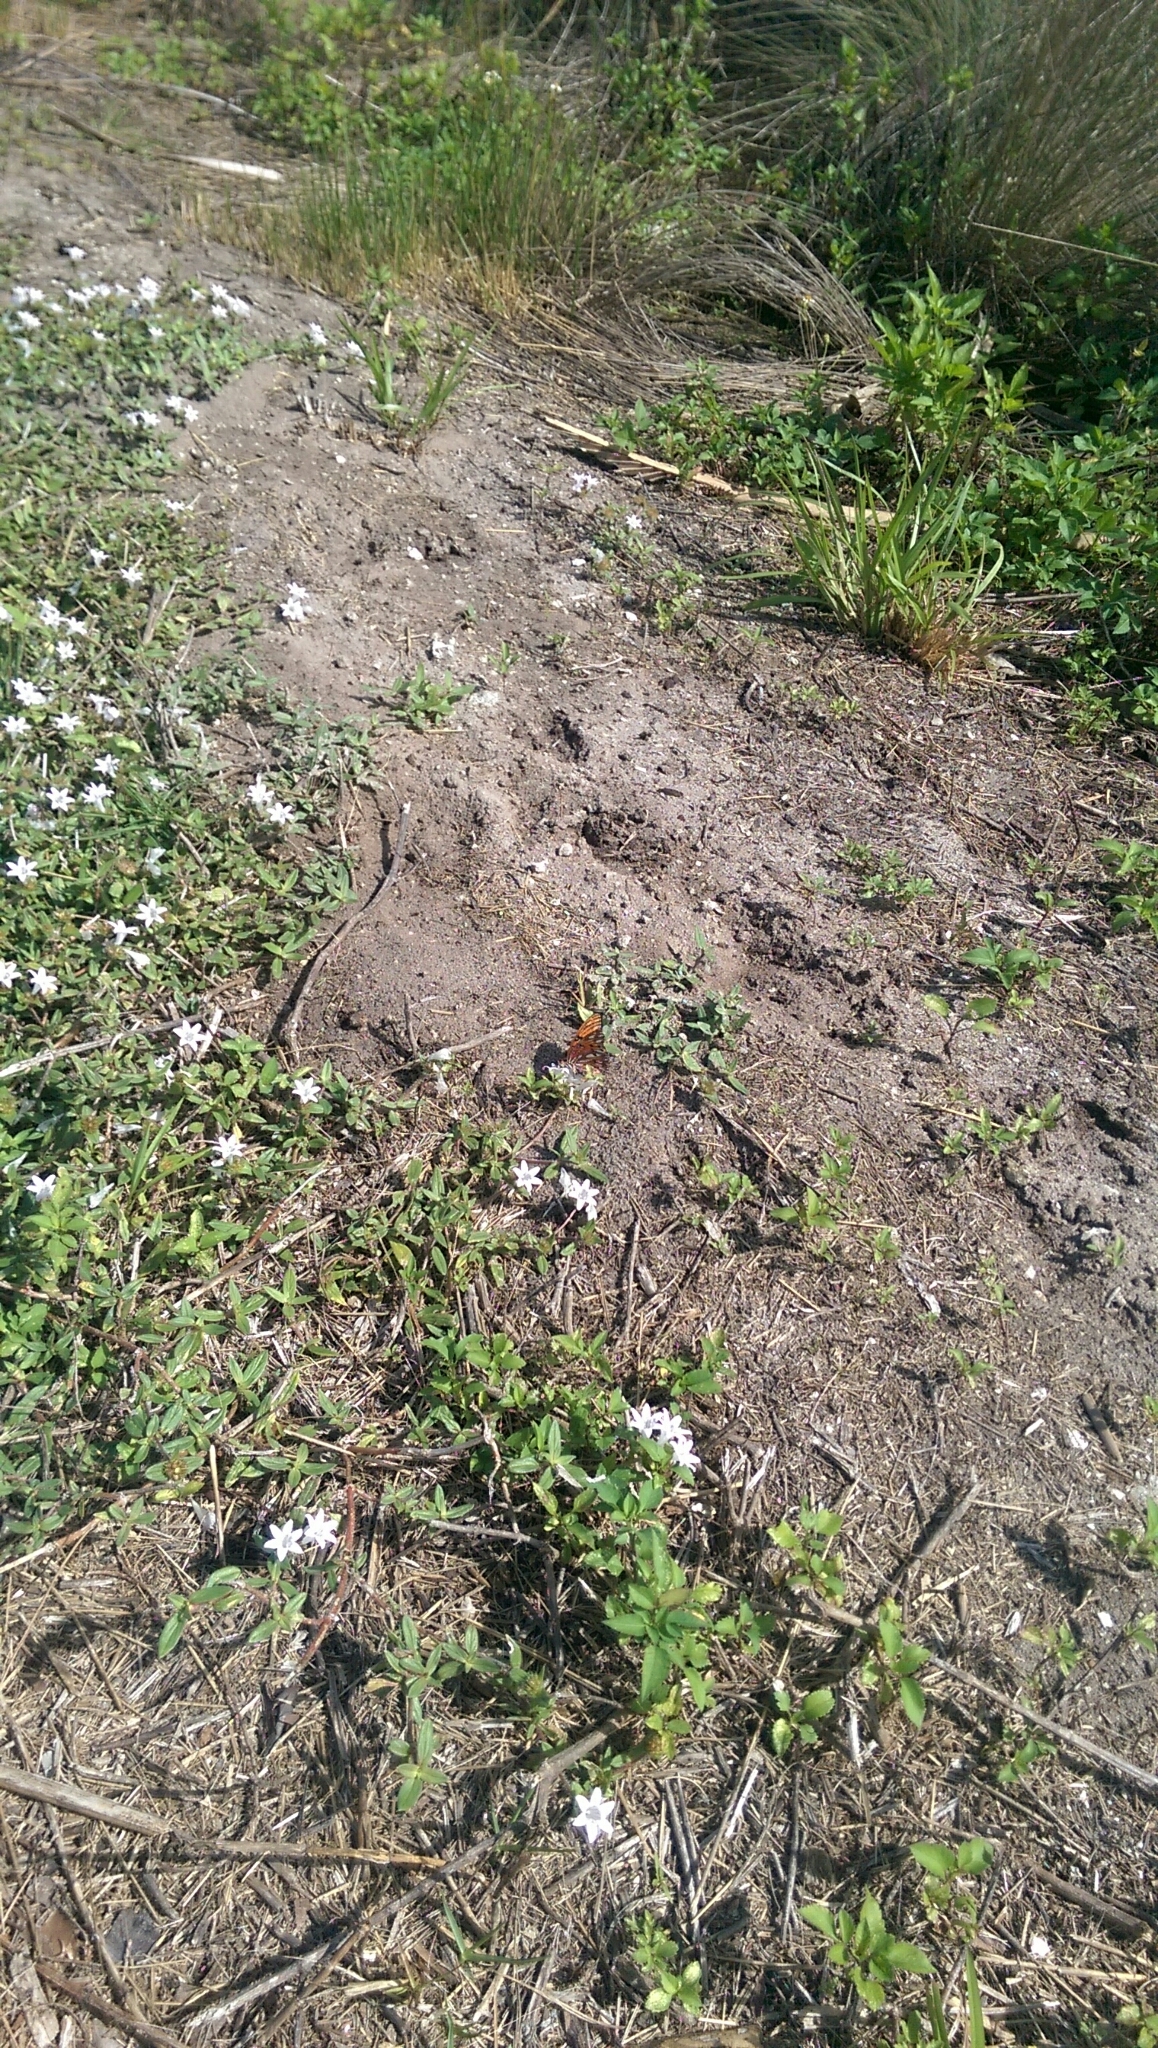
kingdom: Animalia
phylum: Arthropoda
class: Insecta
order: Lepidoptera
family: Nymphalidae
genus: Dione
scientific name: Dione vanillae
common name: Gulf fritillary
